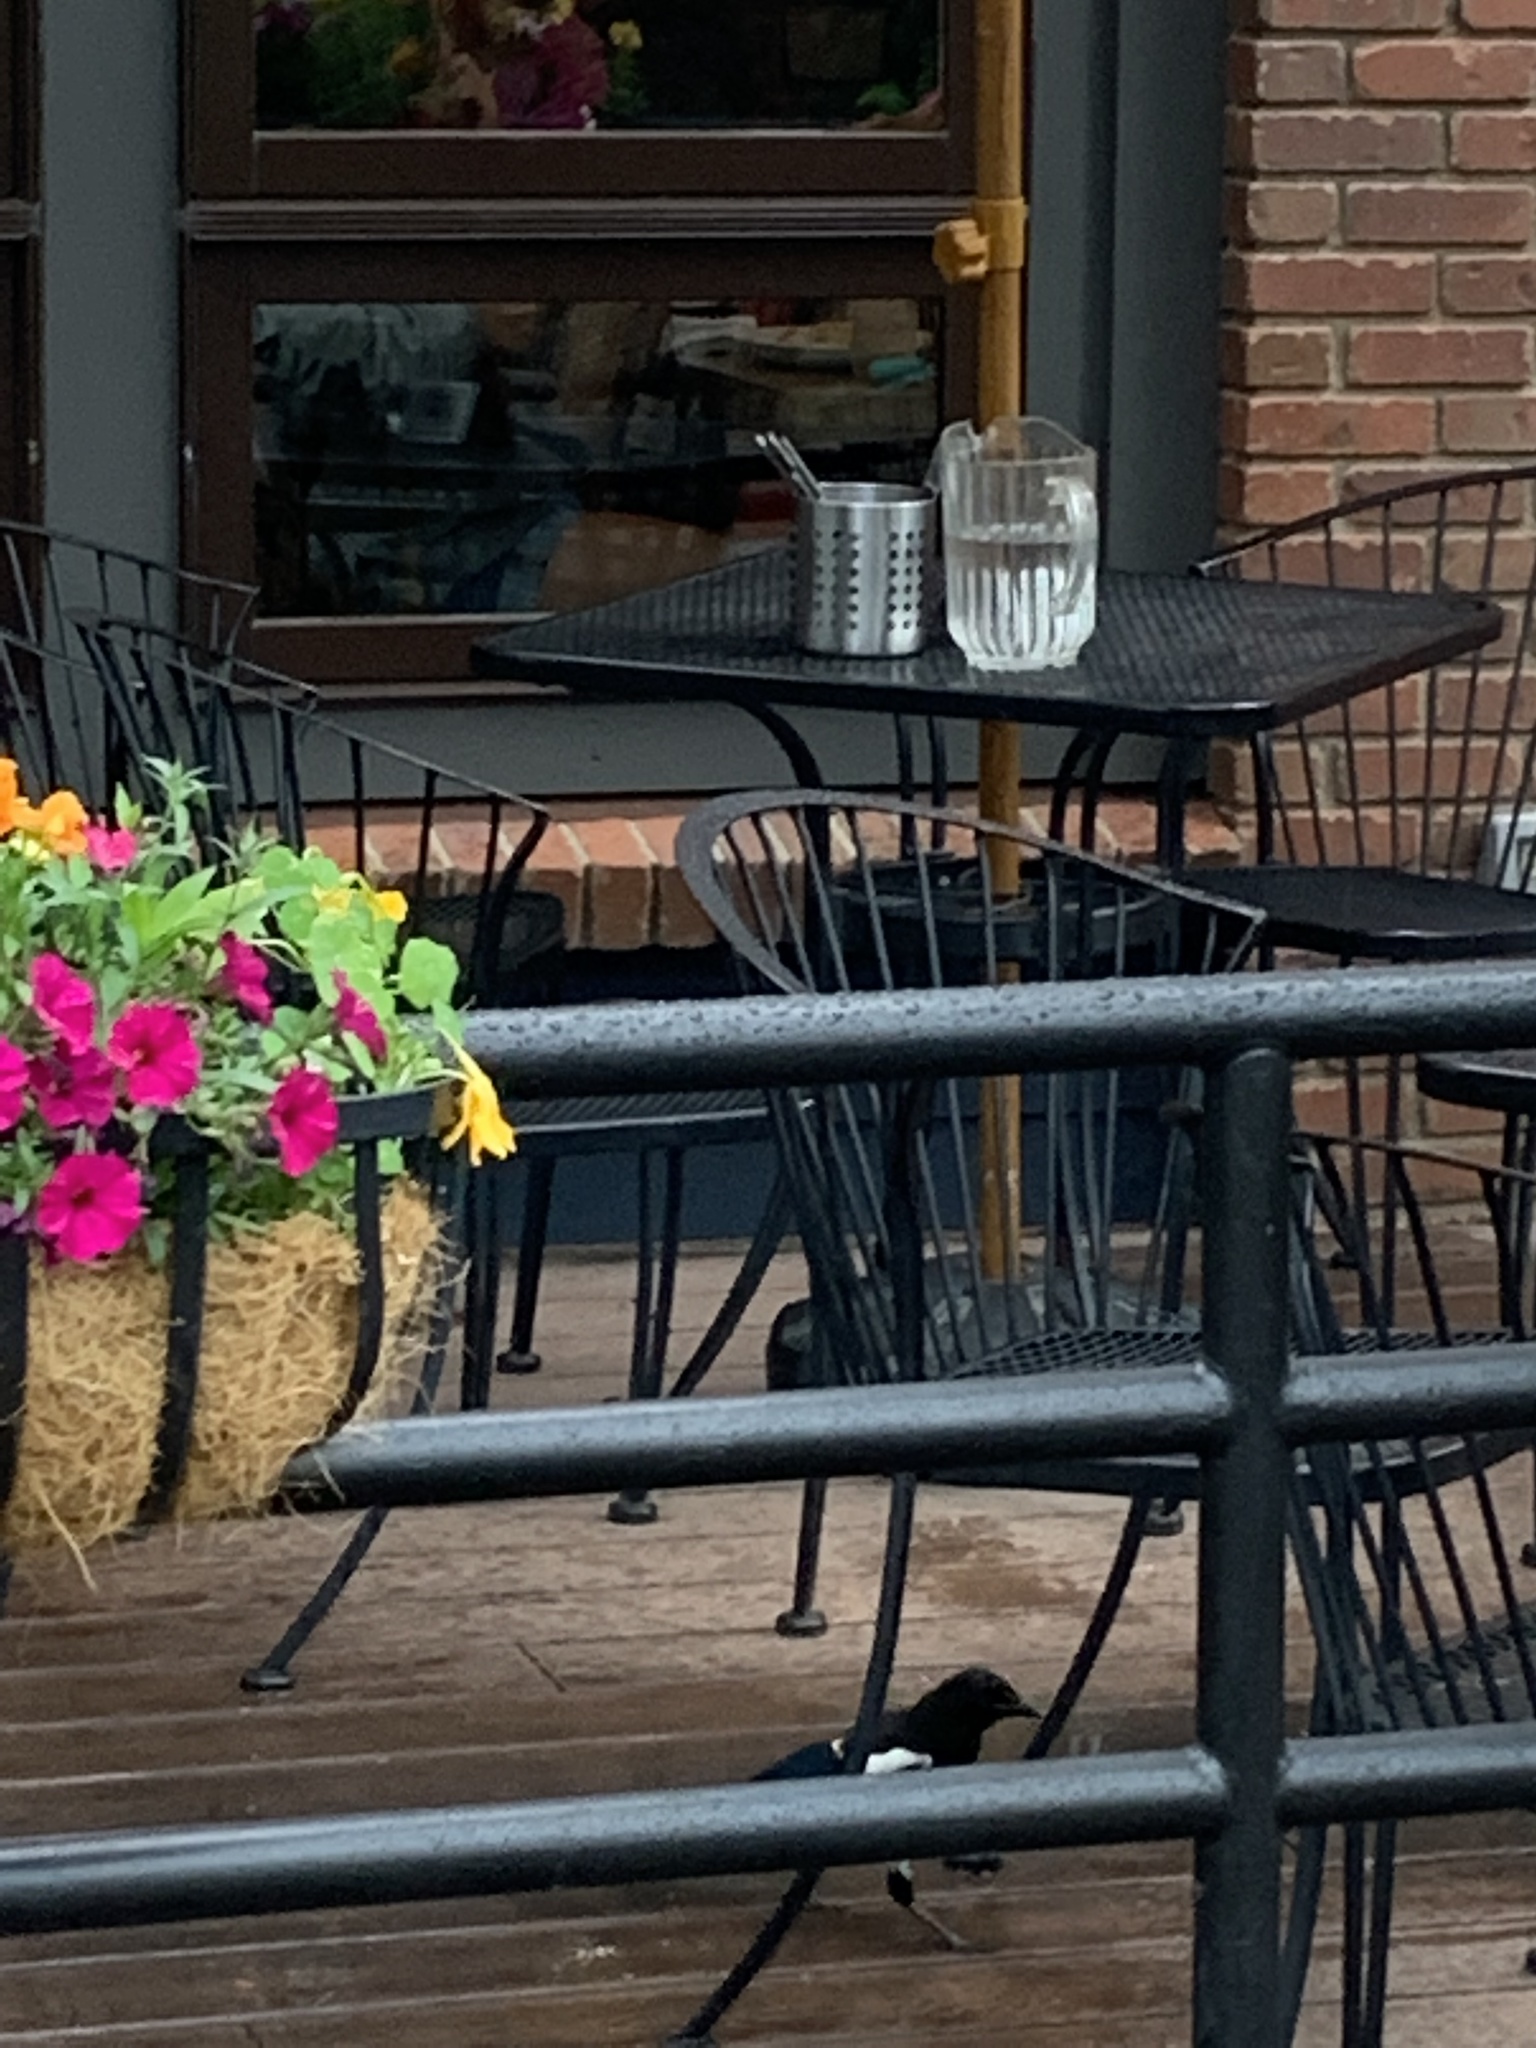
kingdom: Animalia
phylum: Chordata
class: Aves
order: Passeriformes
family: Corvidae
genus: Pica
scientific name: Pica hudsonia
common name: Black-billed magpie
